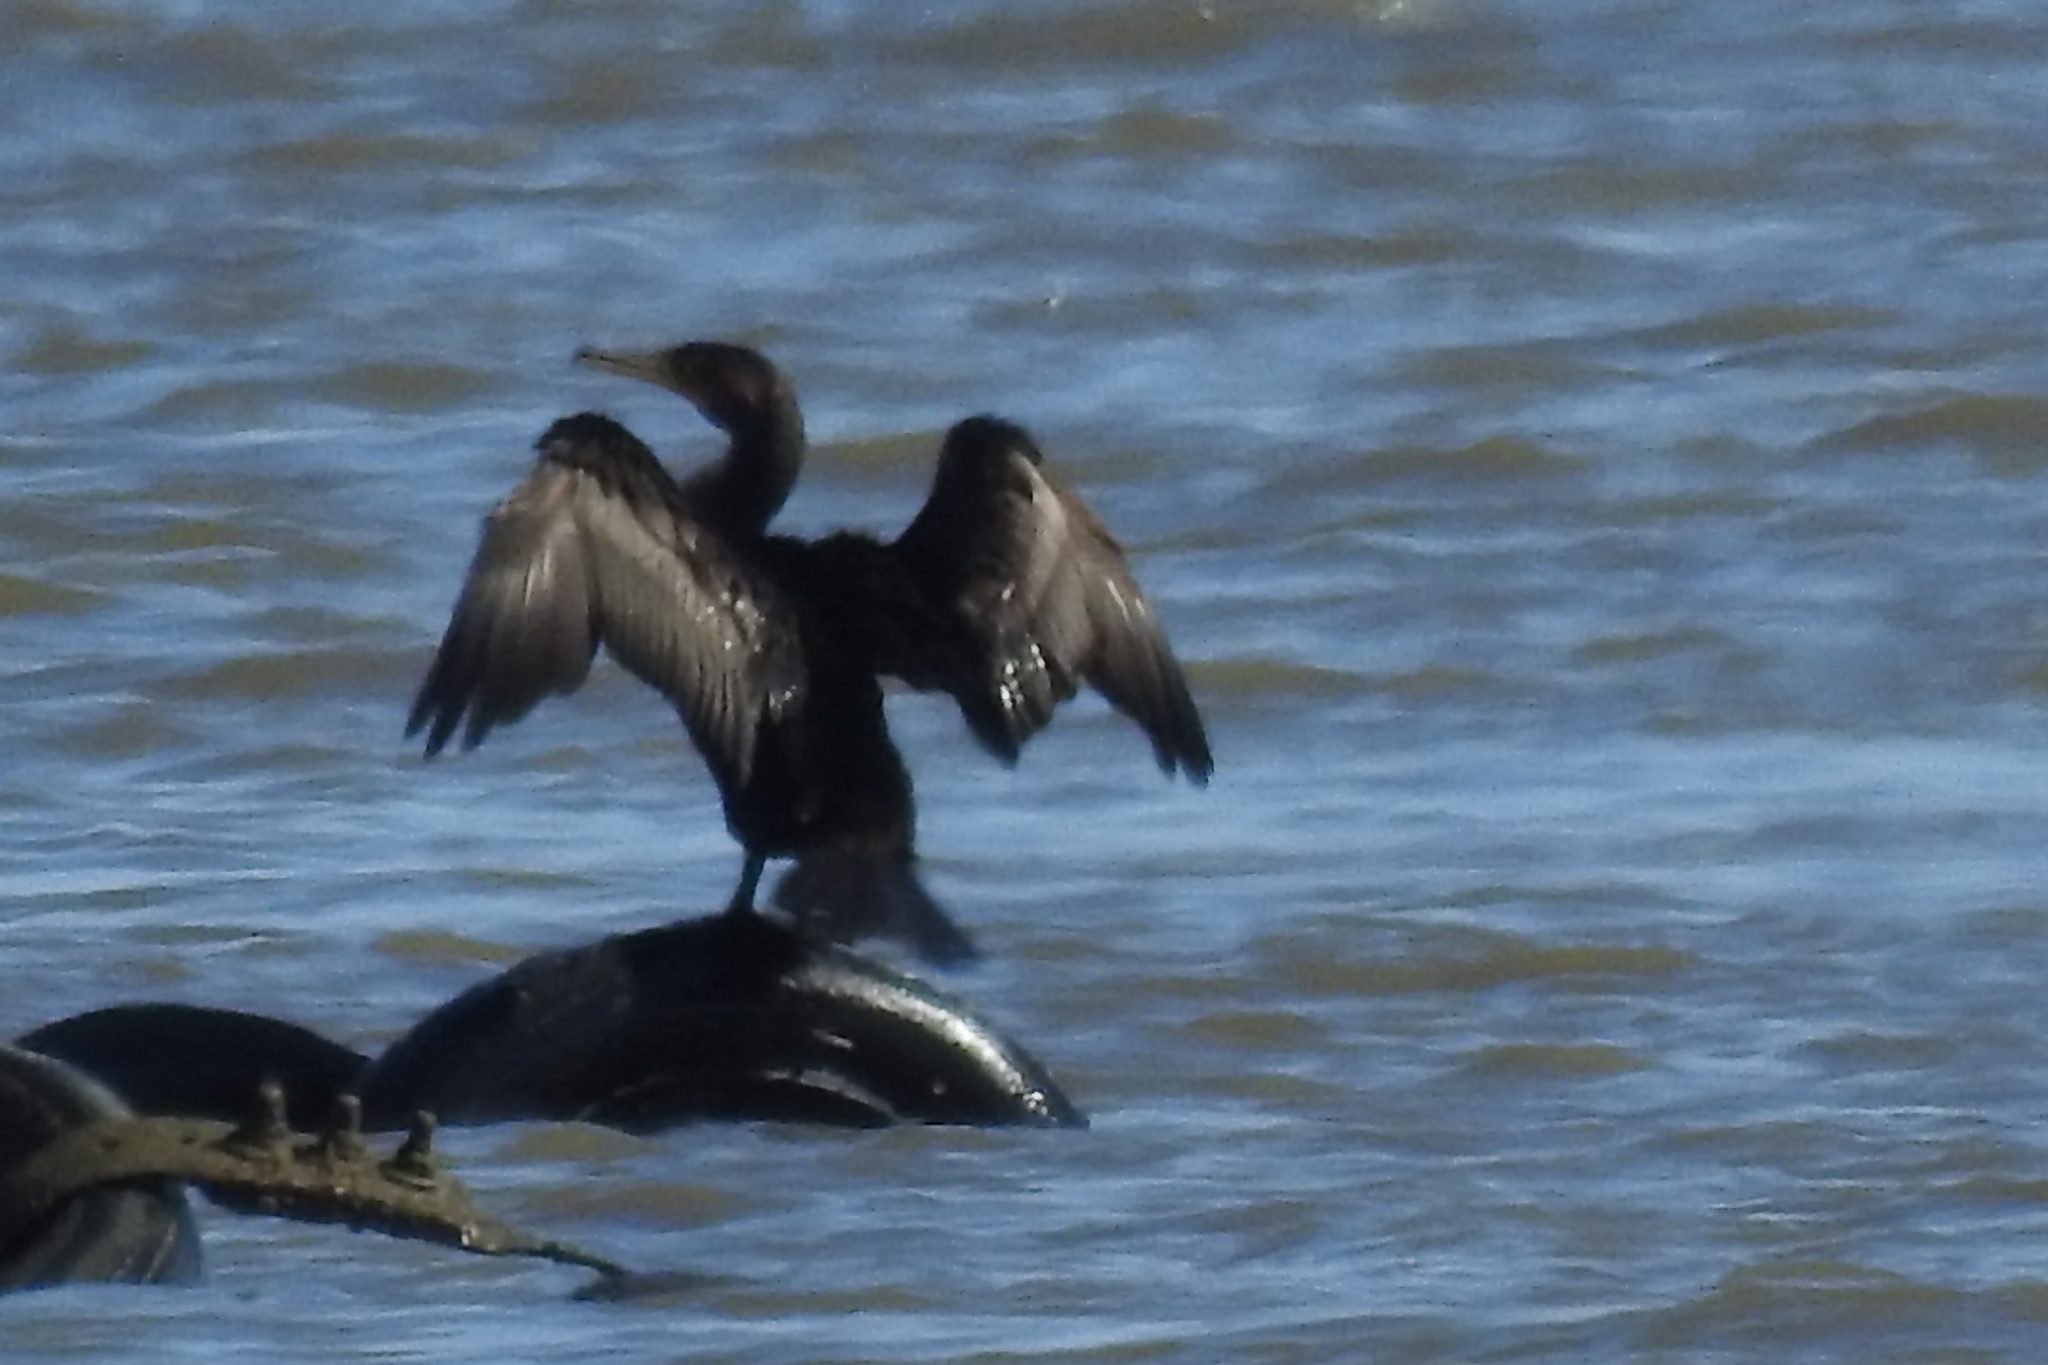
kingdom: Animalia
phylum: Chordata
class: Aves
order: Suliformes
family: Phalacrocoracidae
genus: Phalacrocorax
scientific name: Phalacrocorax auritus
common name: Double-crested cormorant
